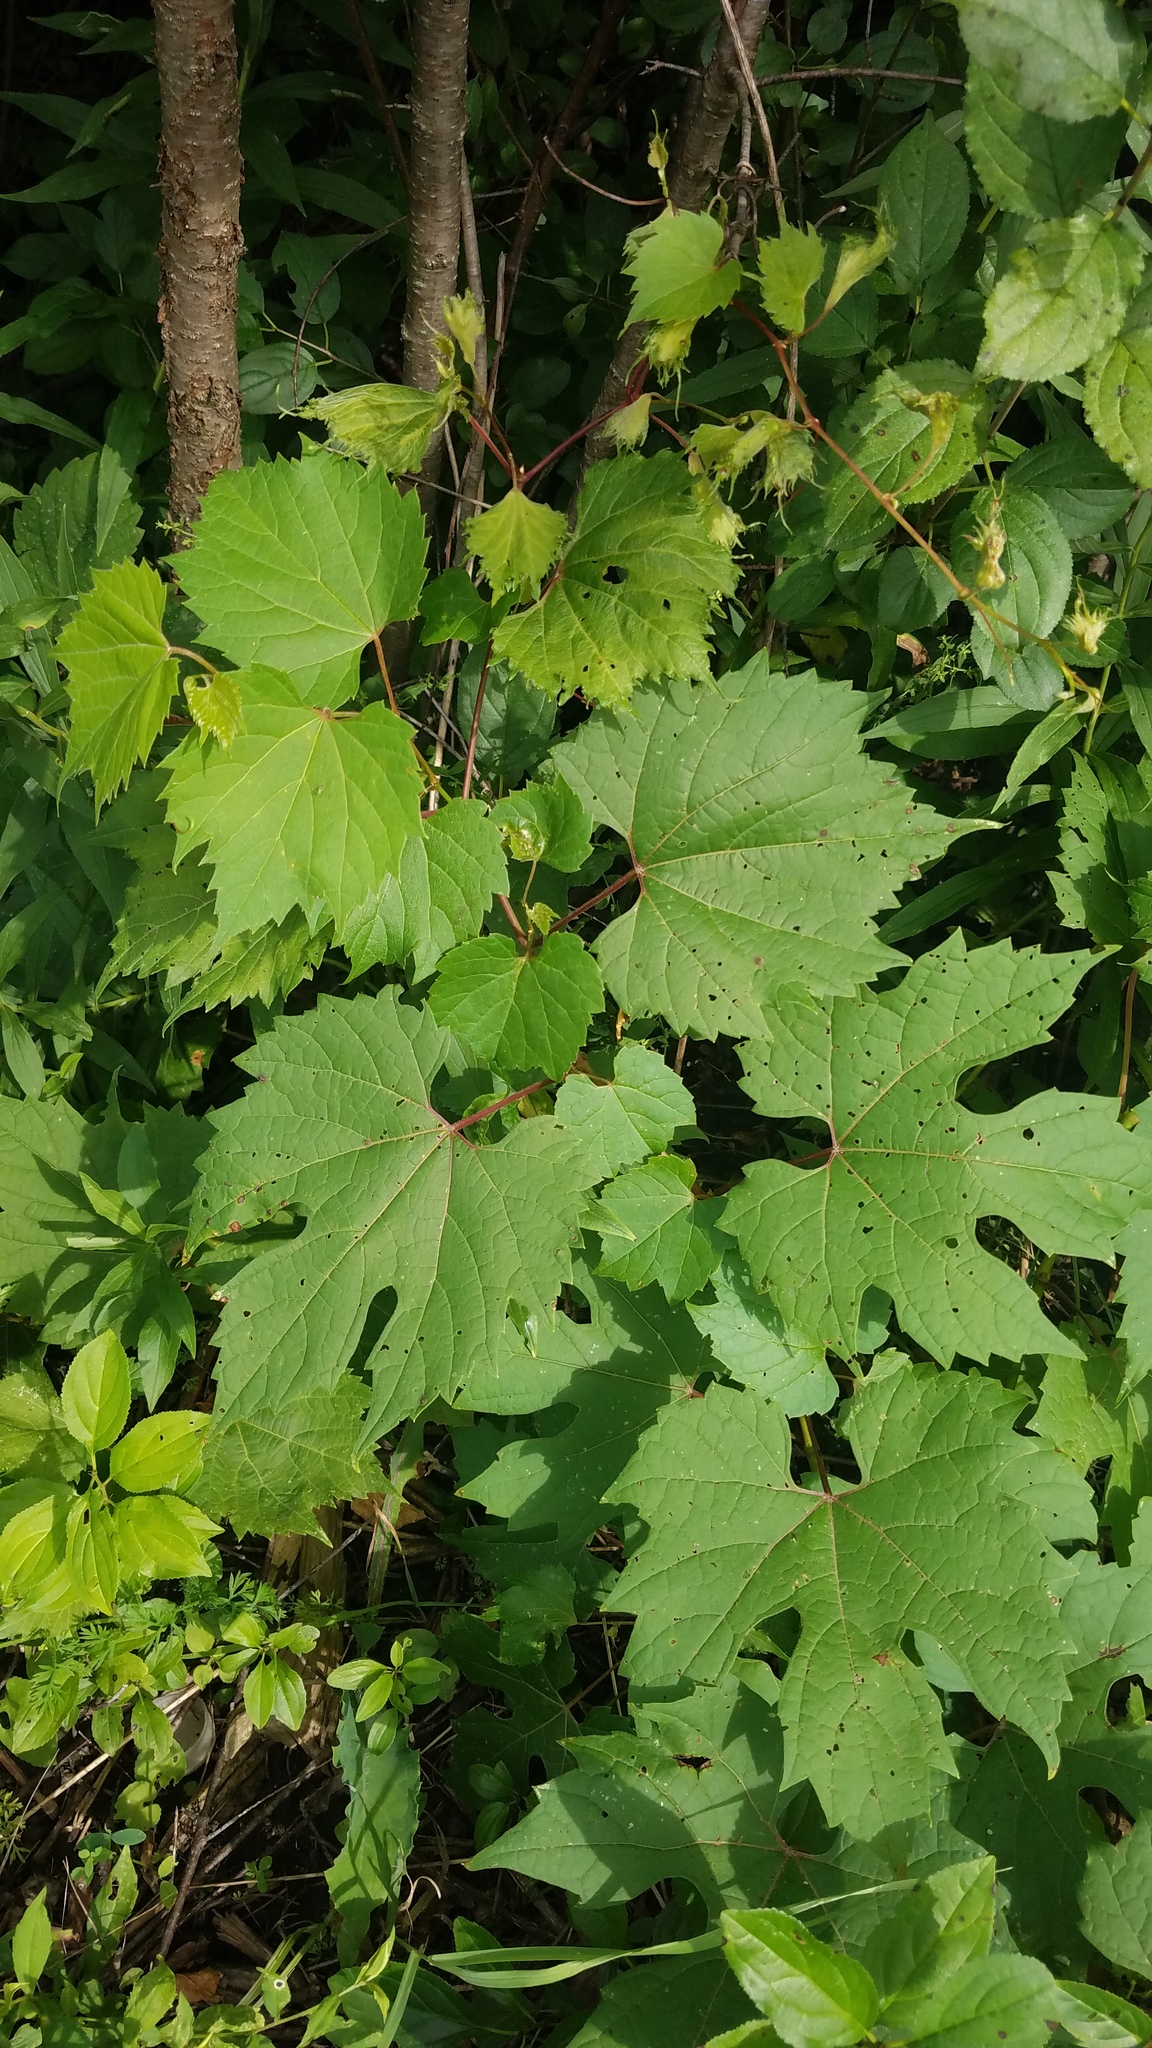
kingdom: Plantae
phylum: Tracheophyta
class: Magnoliopsida
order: Vitales
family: Vitaceae
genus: Vitis
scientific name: Vitis riparia
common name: Frost grape
